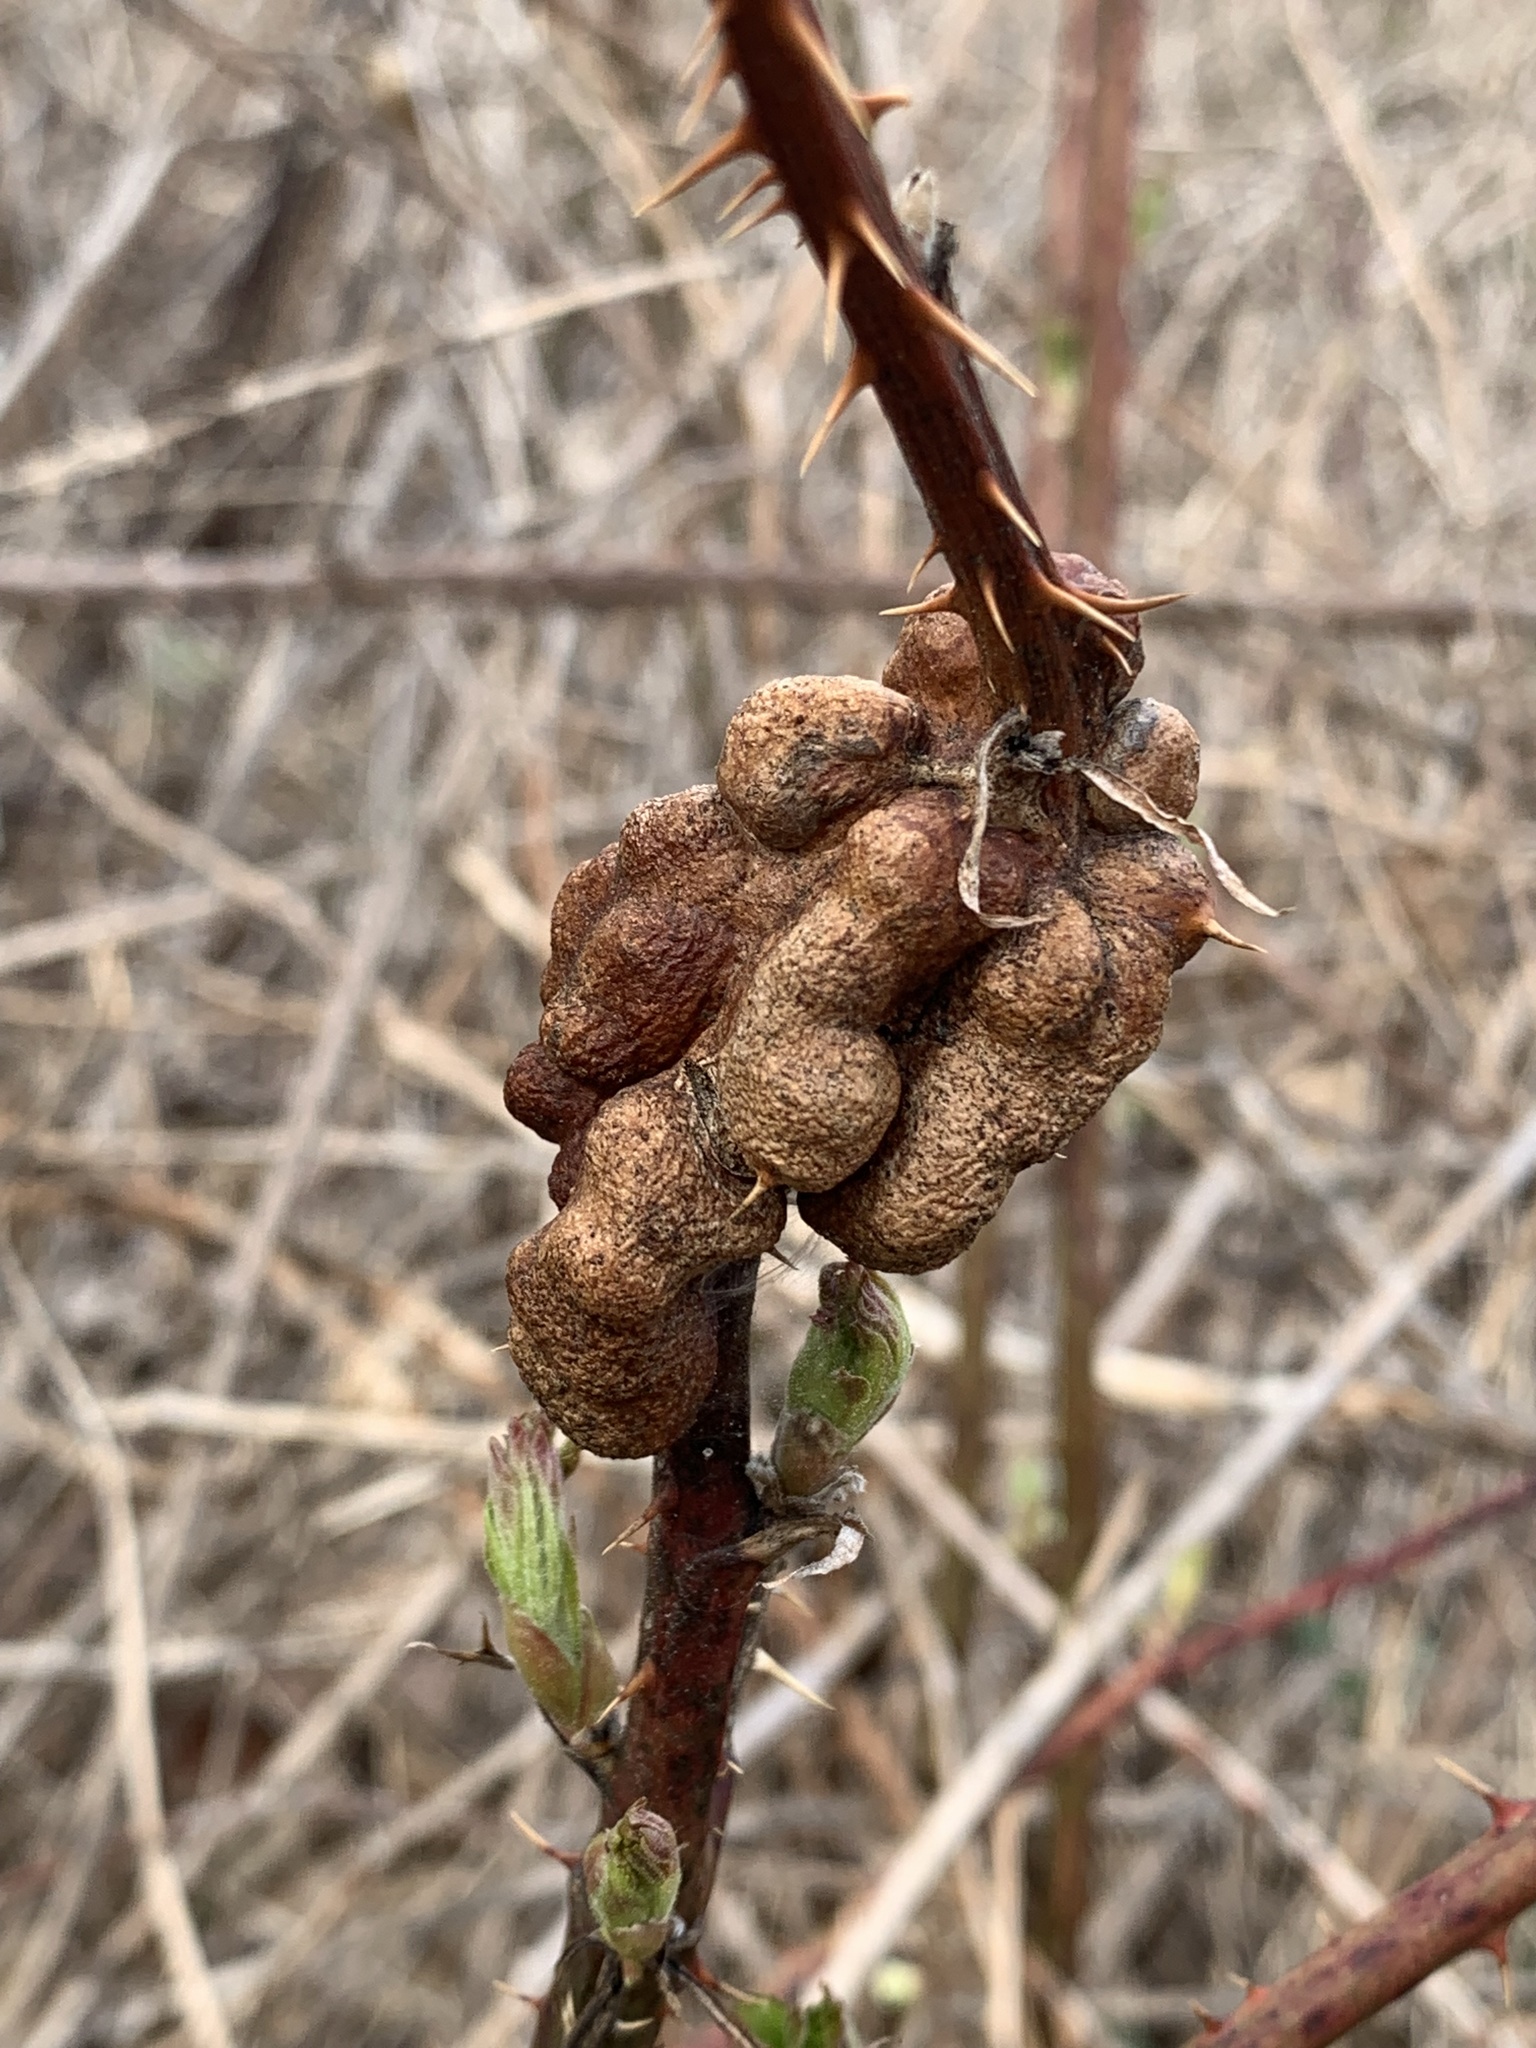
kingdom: Animalia
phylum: Arthropoda
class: Insecta
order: Hymenoptera
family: Cynipidae
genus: Diastrophus
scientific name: Diastrophus
